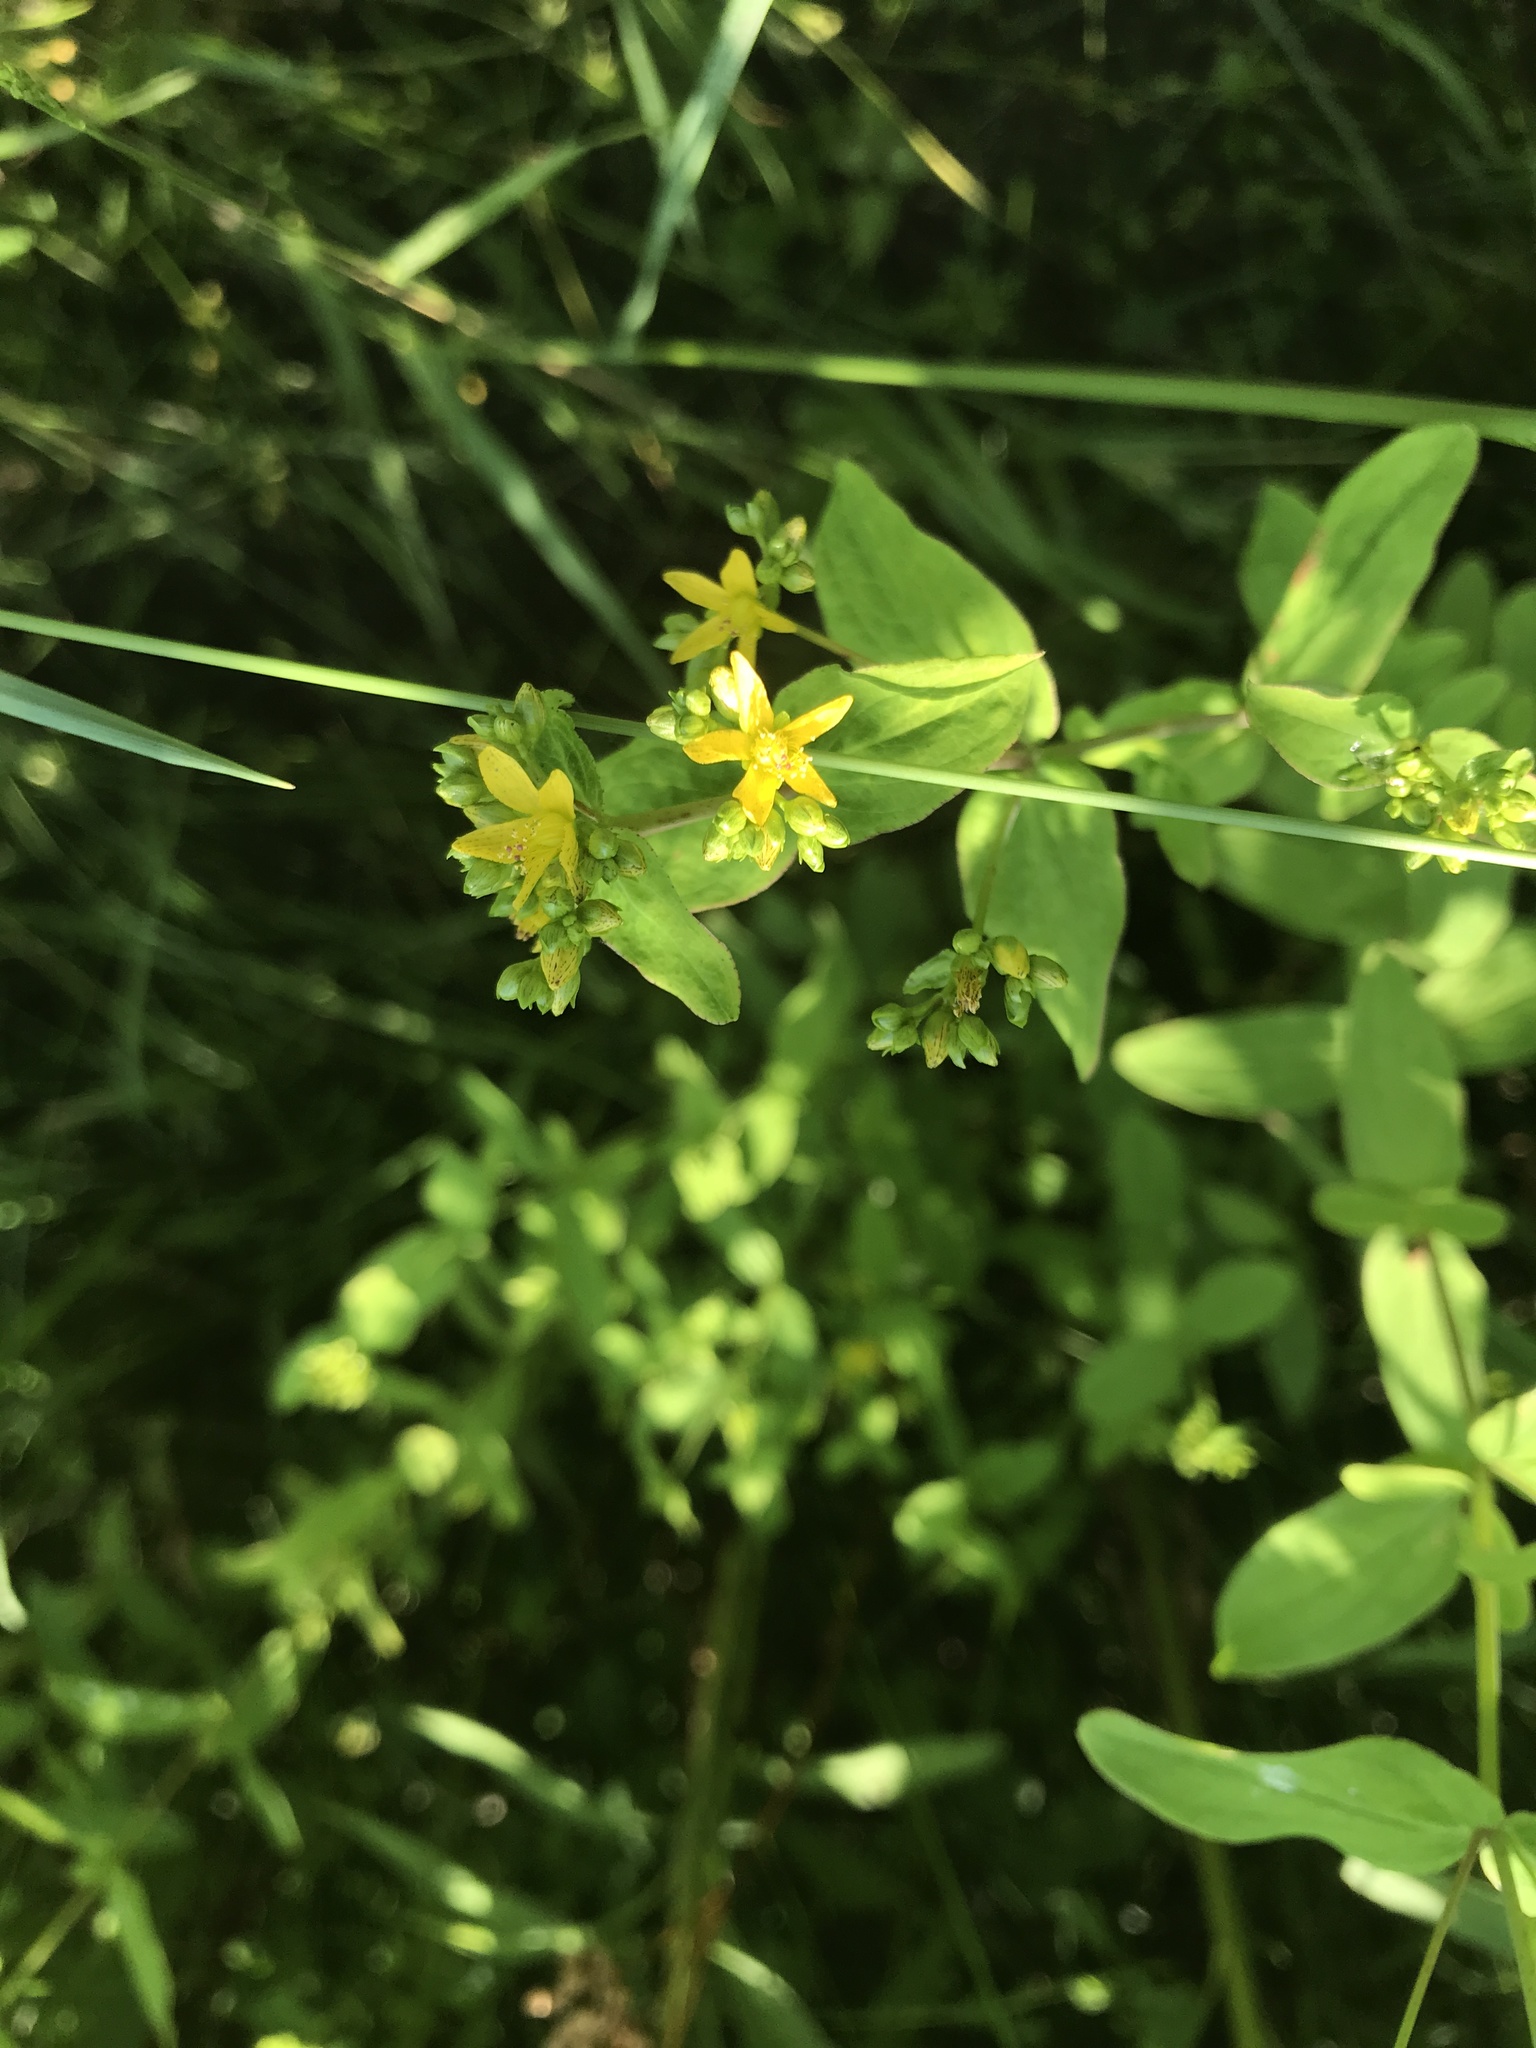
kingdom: Plantae
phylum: Tracheophyta
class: Magnoliopsida
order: Malpighiales
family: Hypericaceae
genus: Hypericum
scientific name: Hypericum punctatum
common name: Spotted st. john's-wort
